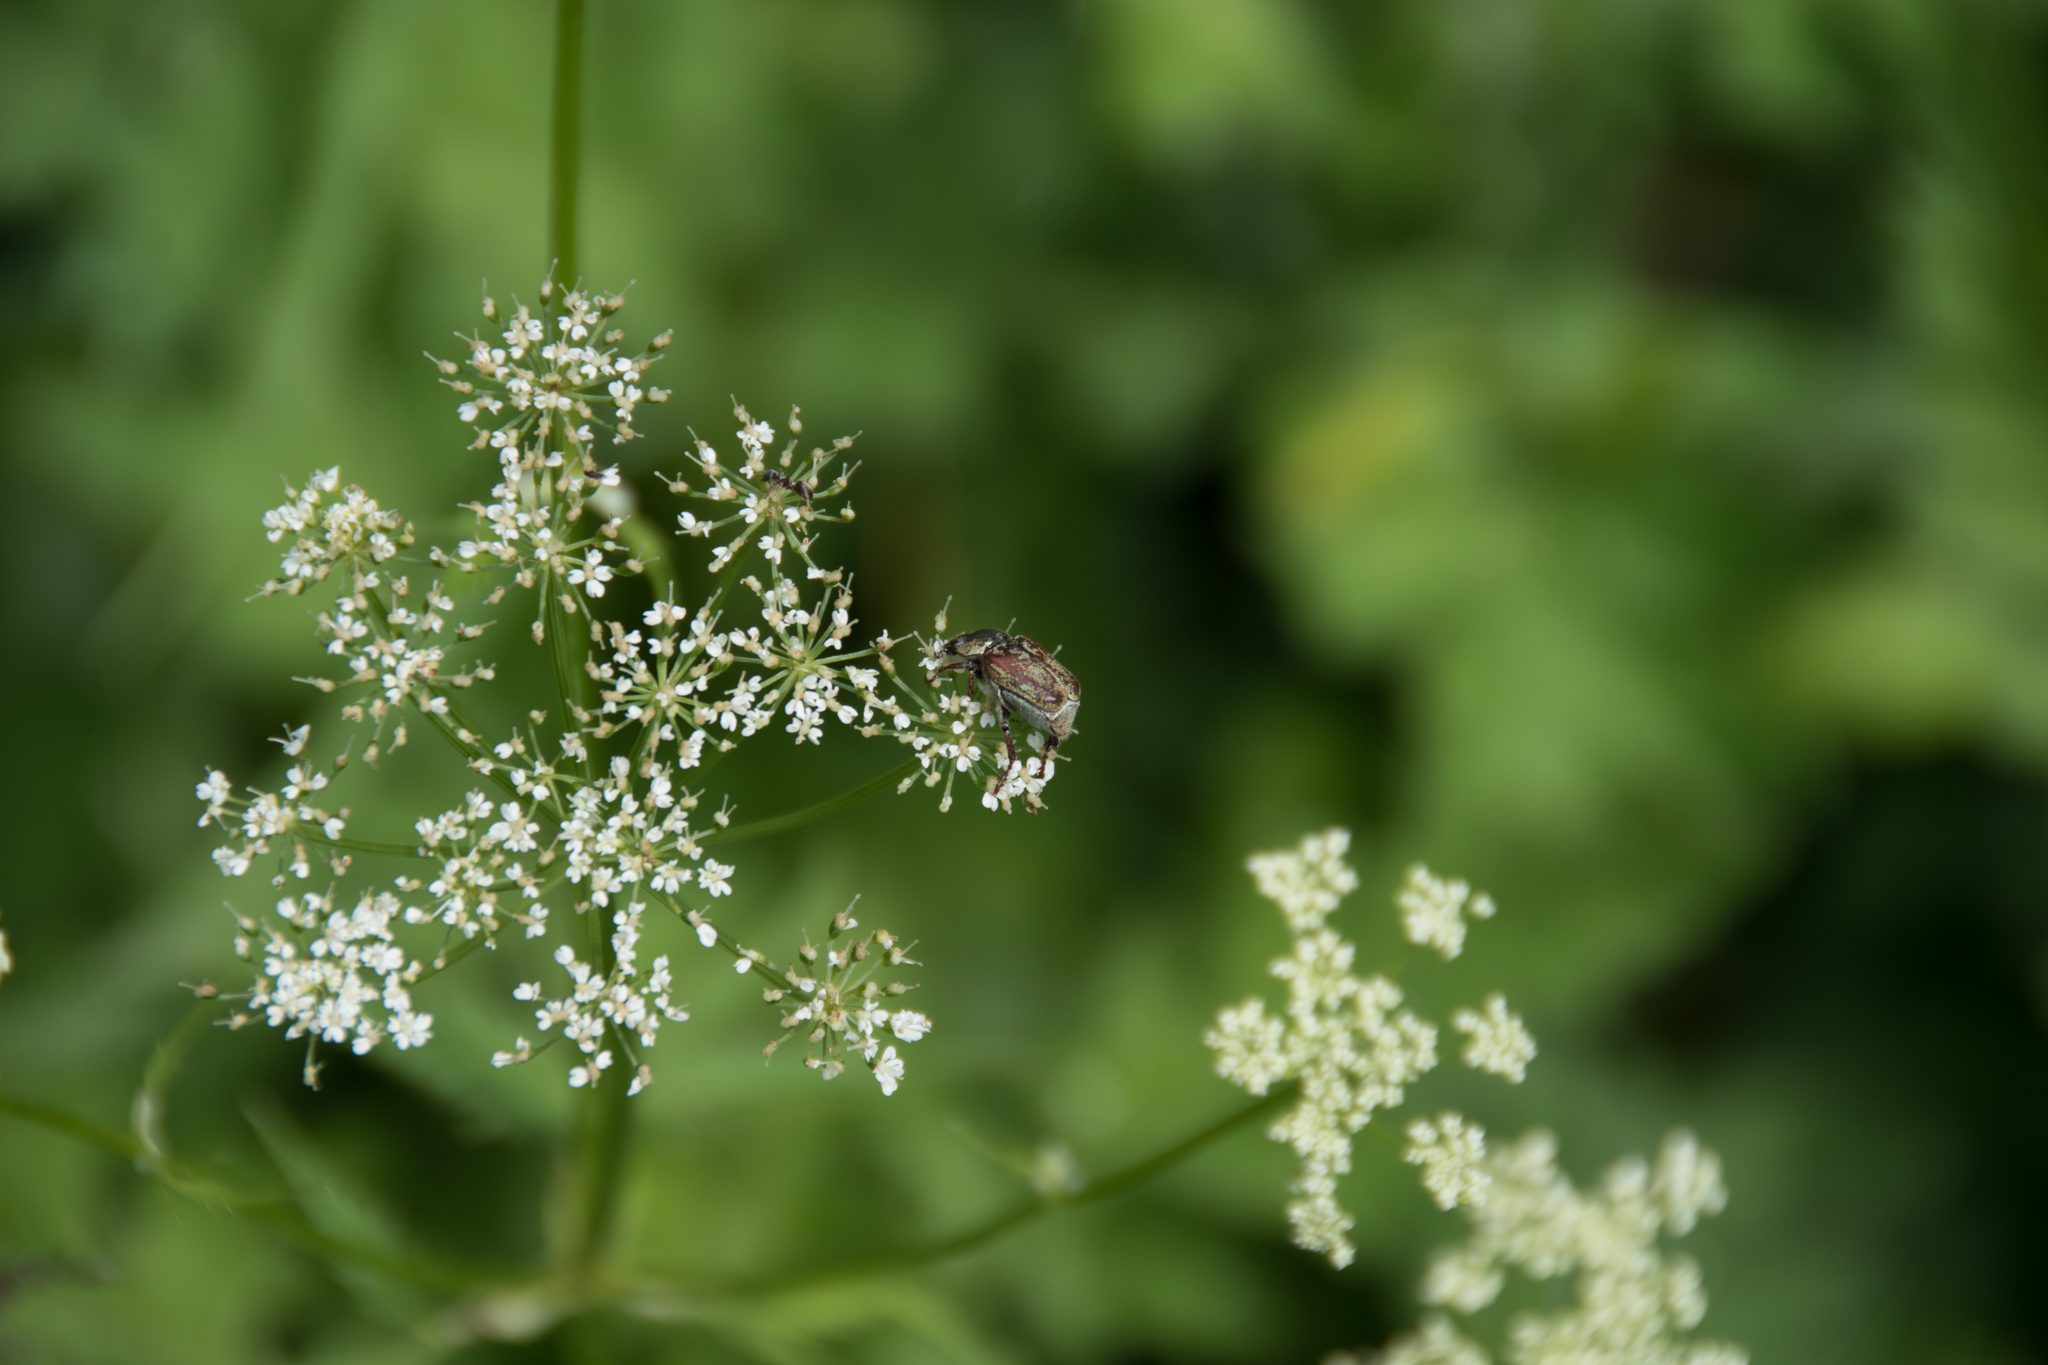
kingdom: Animalia
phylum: Arthropoda
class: Insecta
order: Coleoptera
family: Scarabaeidae
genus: Hoplia
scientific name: Hoplia argentea
